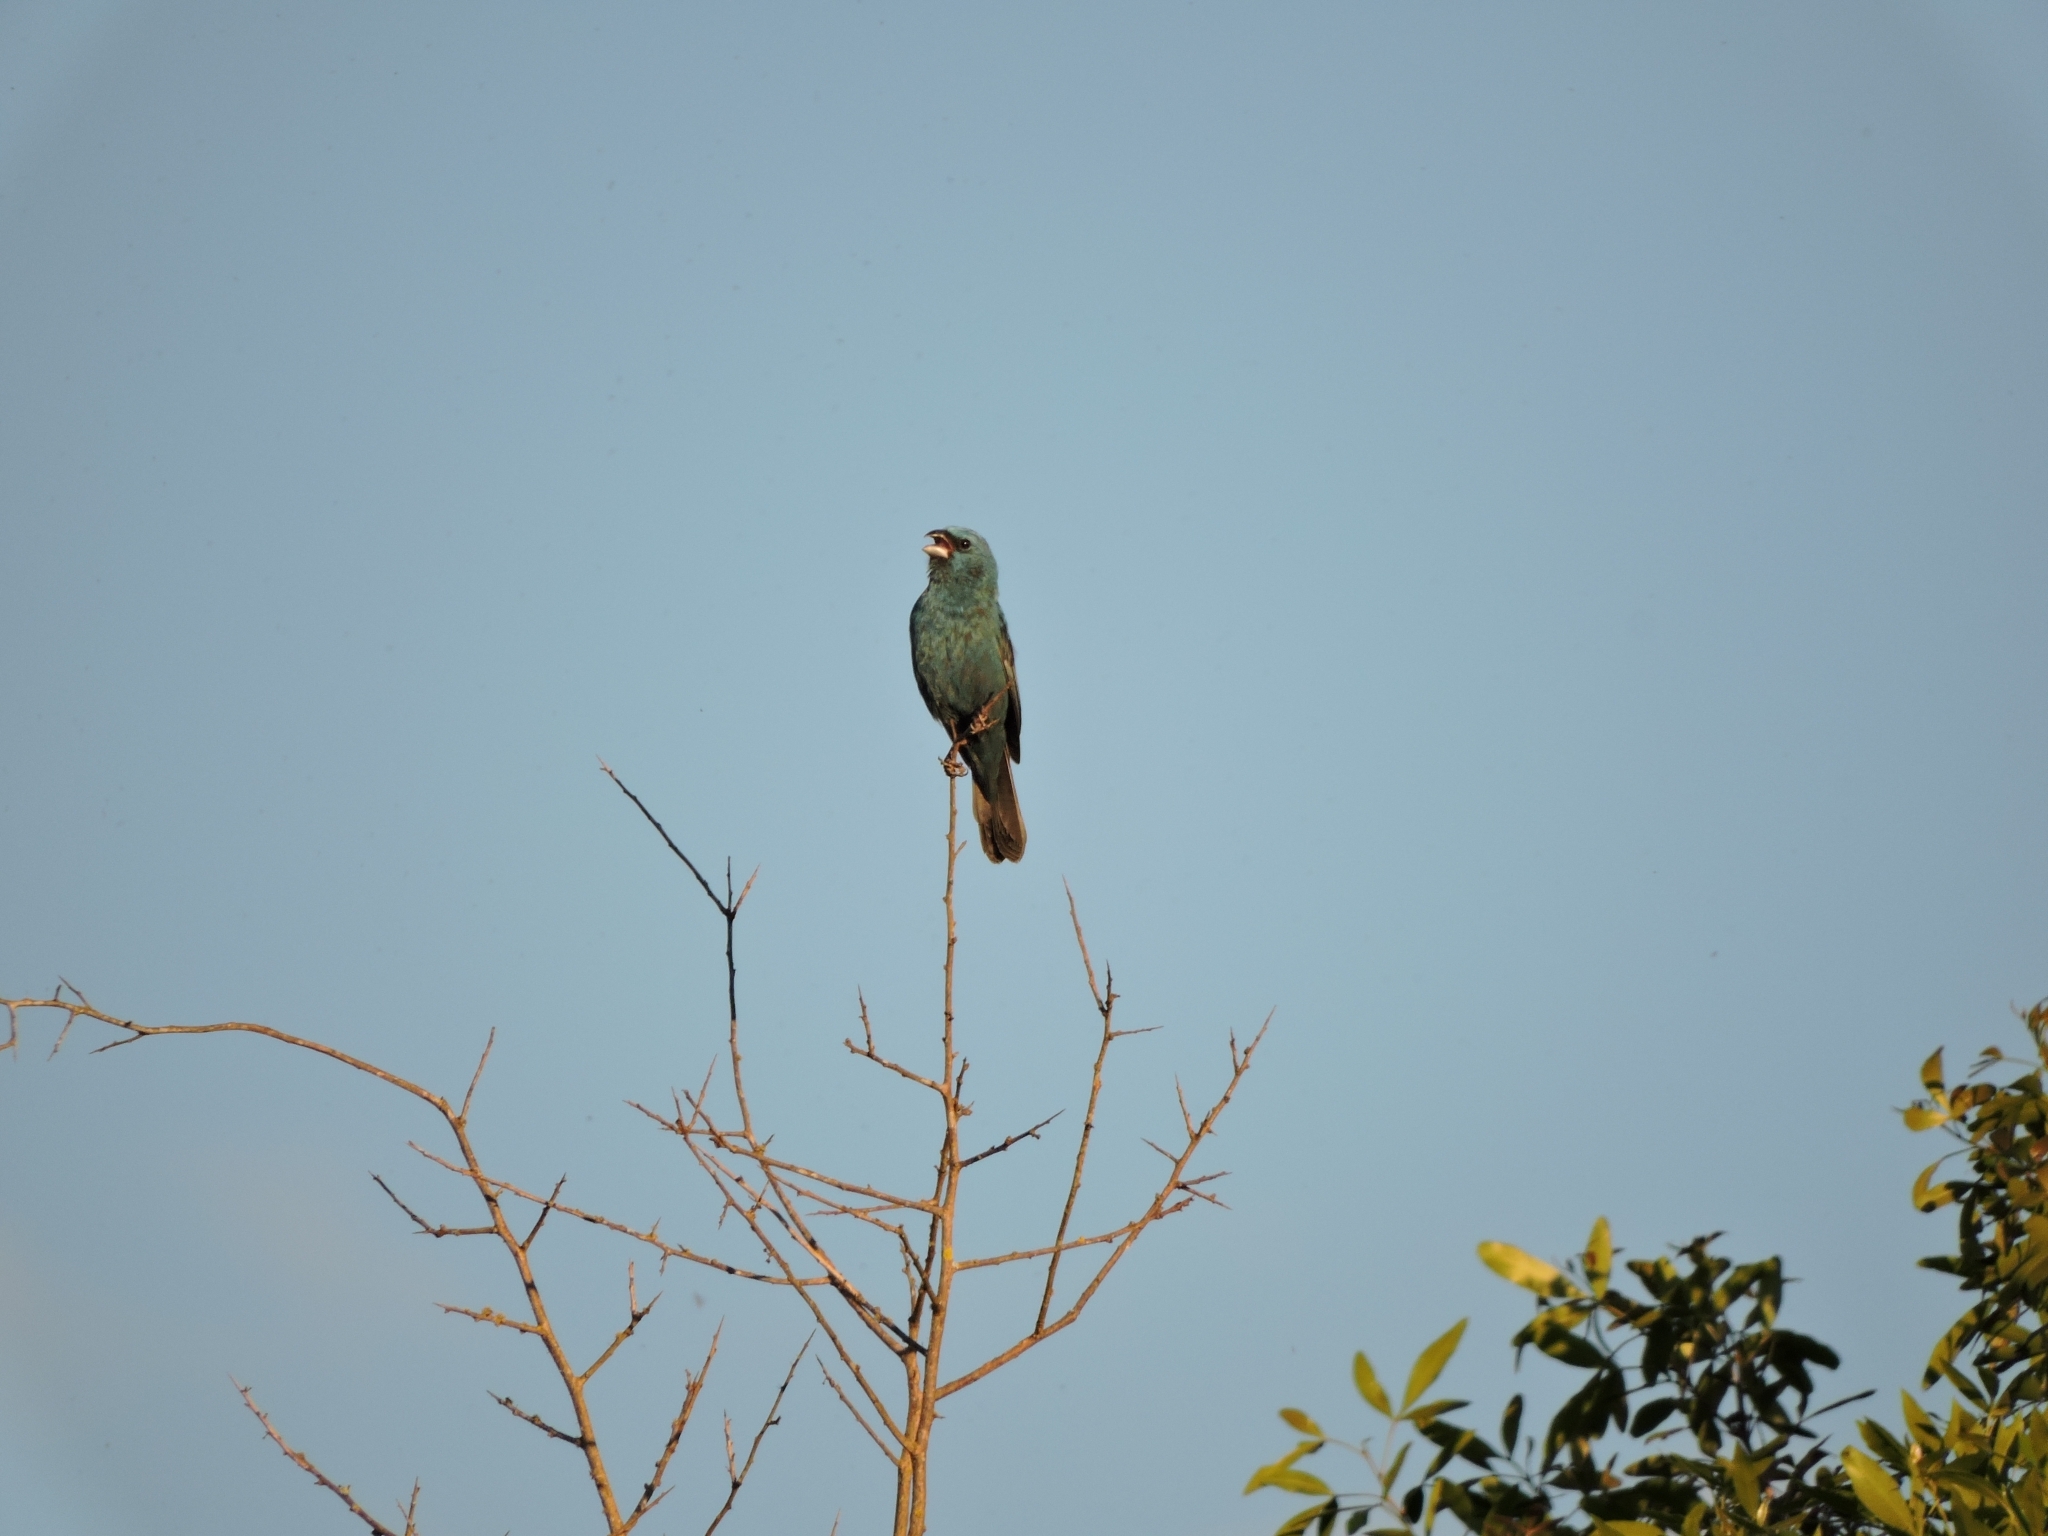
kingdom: Animalia
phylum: Chordata
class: Aves
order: Passeriformes
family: Cardinalidae
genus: Cyanoloxia
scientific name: Cyanoloxia glaucocaerulea
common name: Glaucous-blue grosbeak
